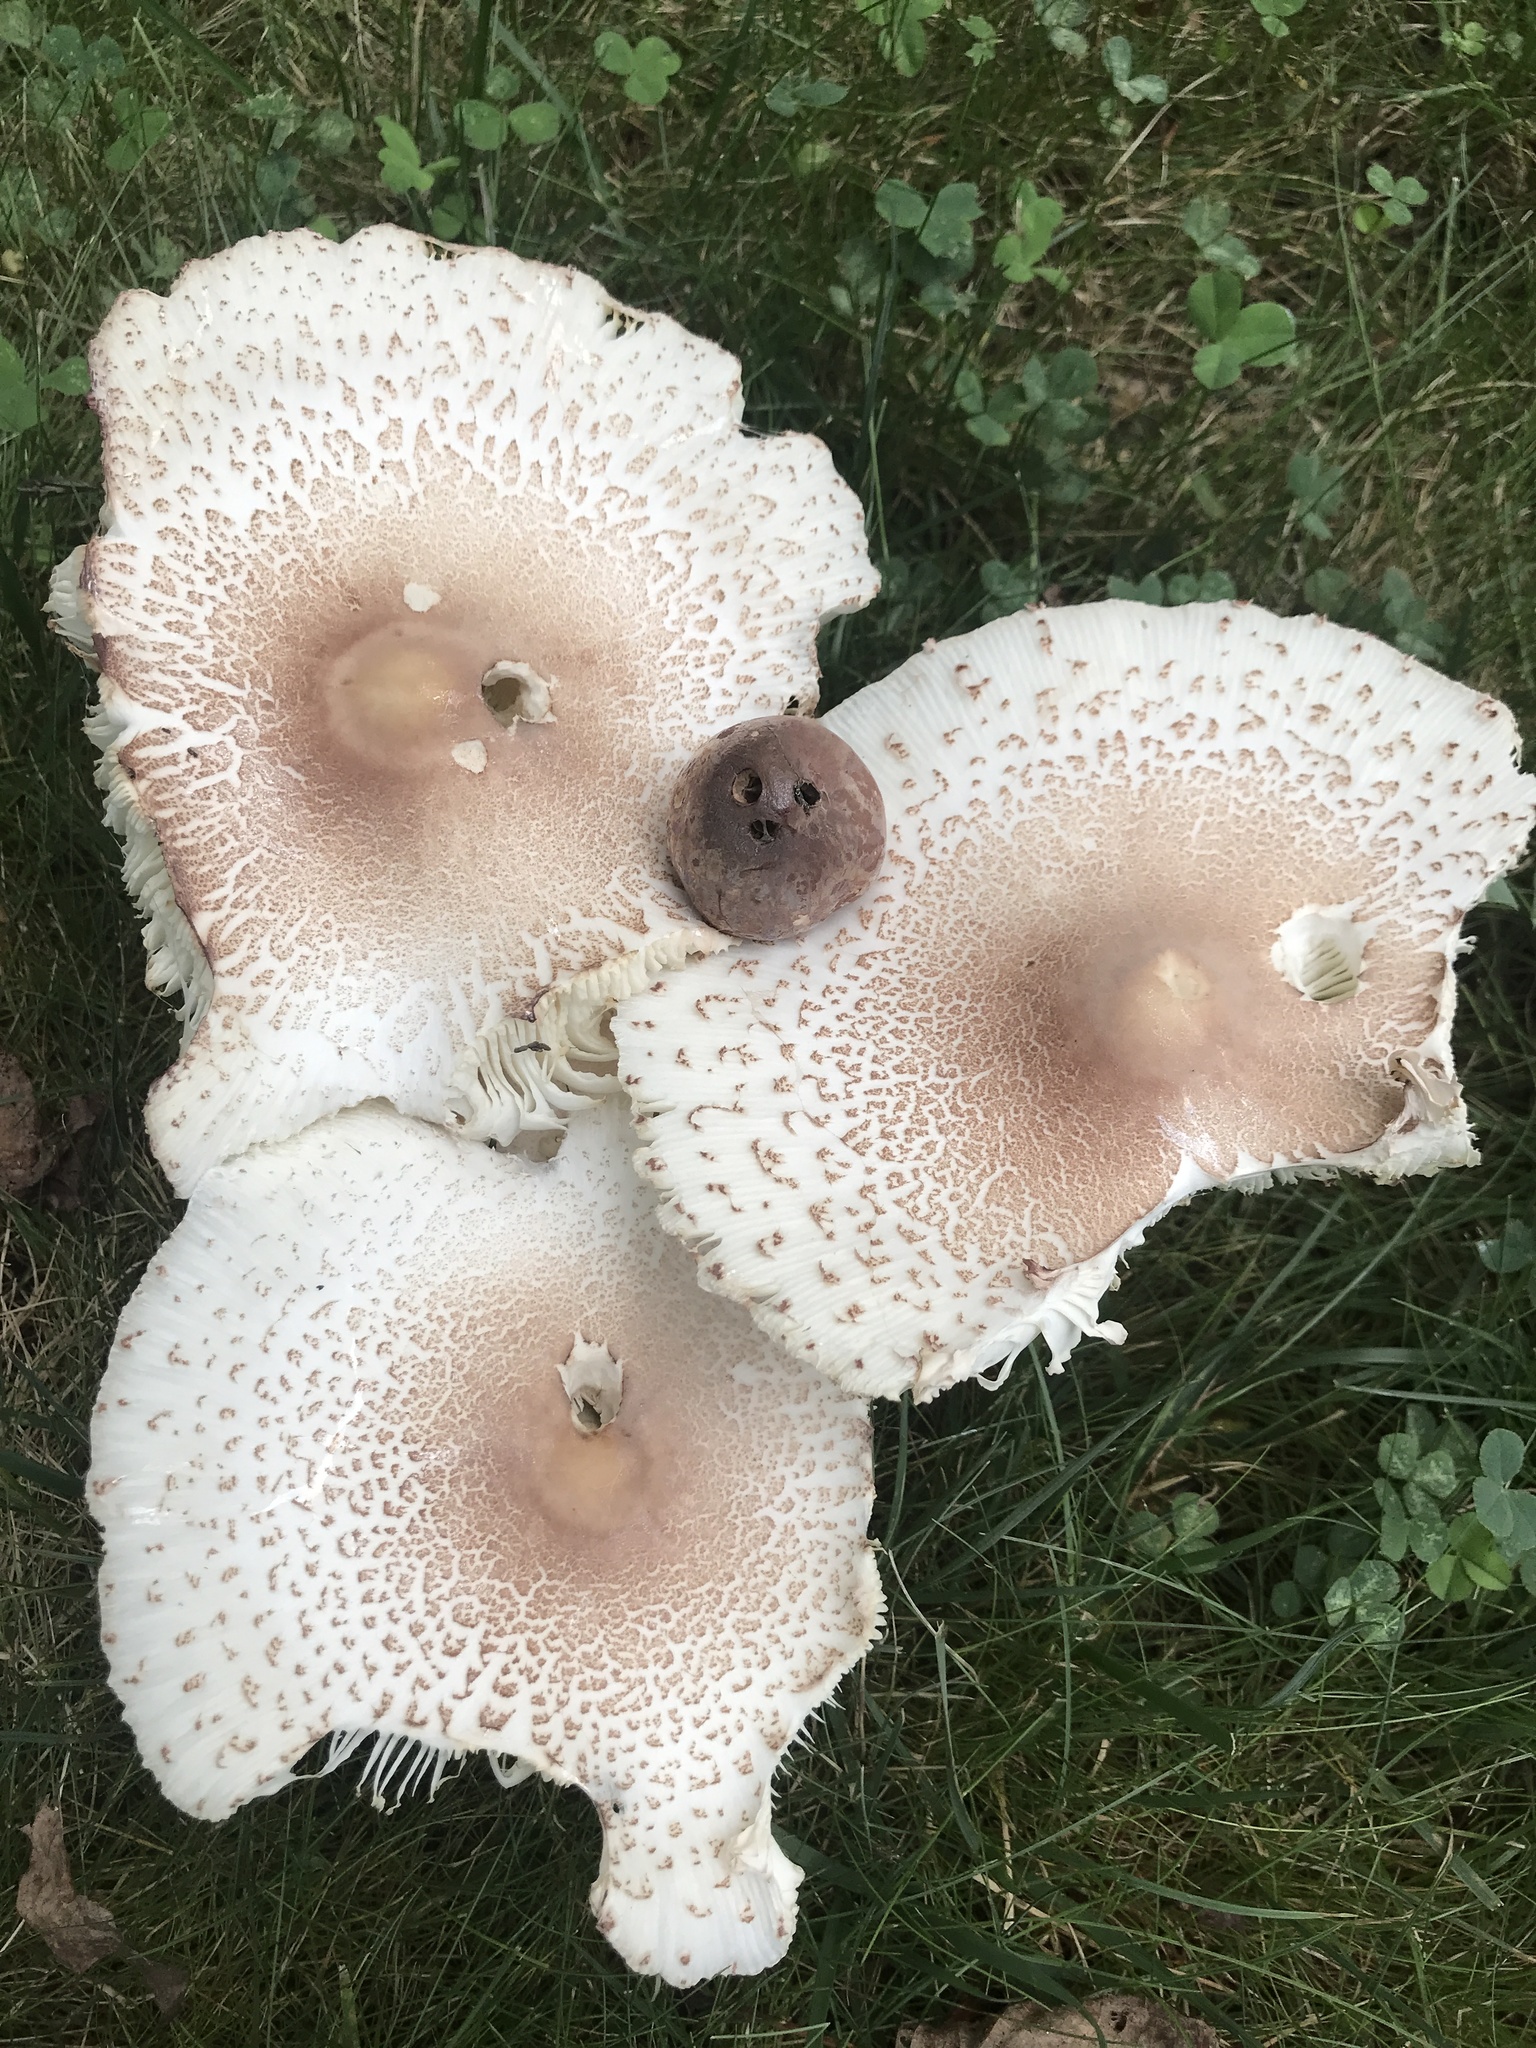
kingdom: Fungi
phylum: Basidiomycota
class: Agaricomycetes
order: Agaricales
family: Agaricaceae
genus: Leucoagaricus
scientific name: Leucoagaricus americanus
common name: Reddening lepiota
